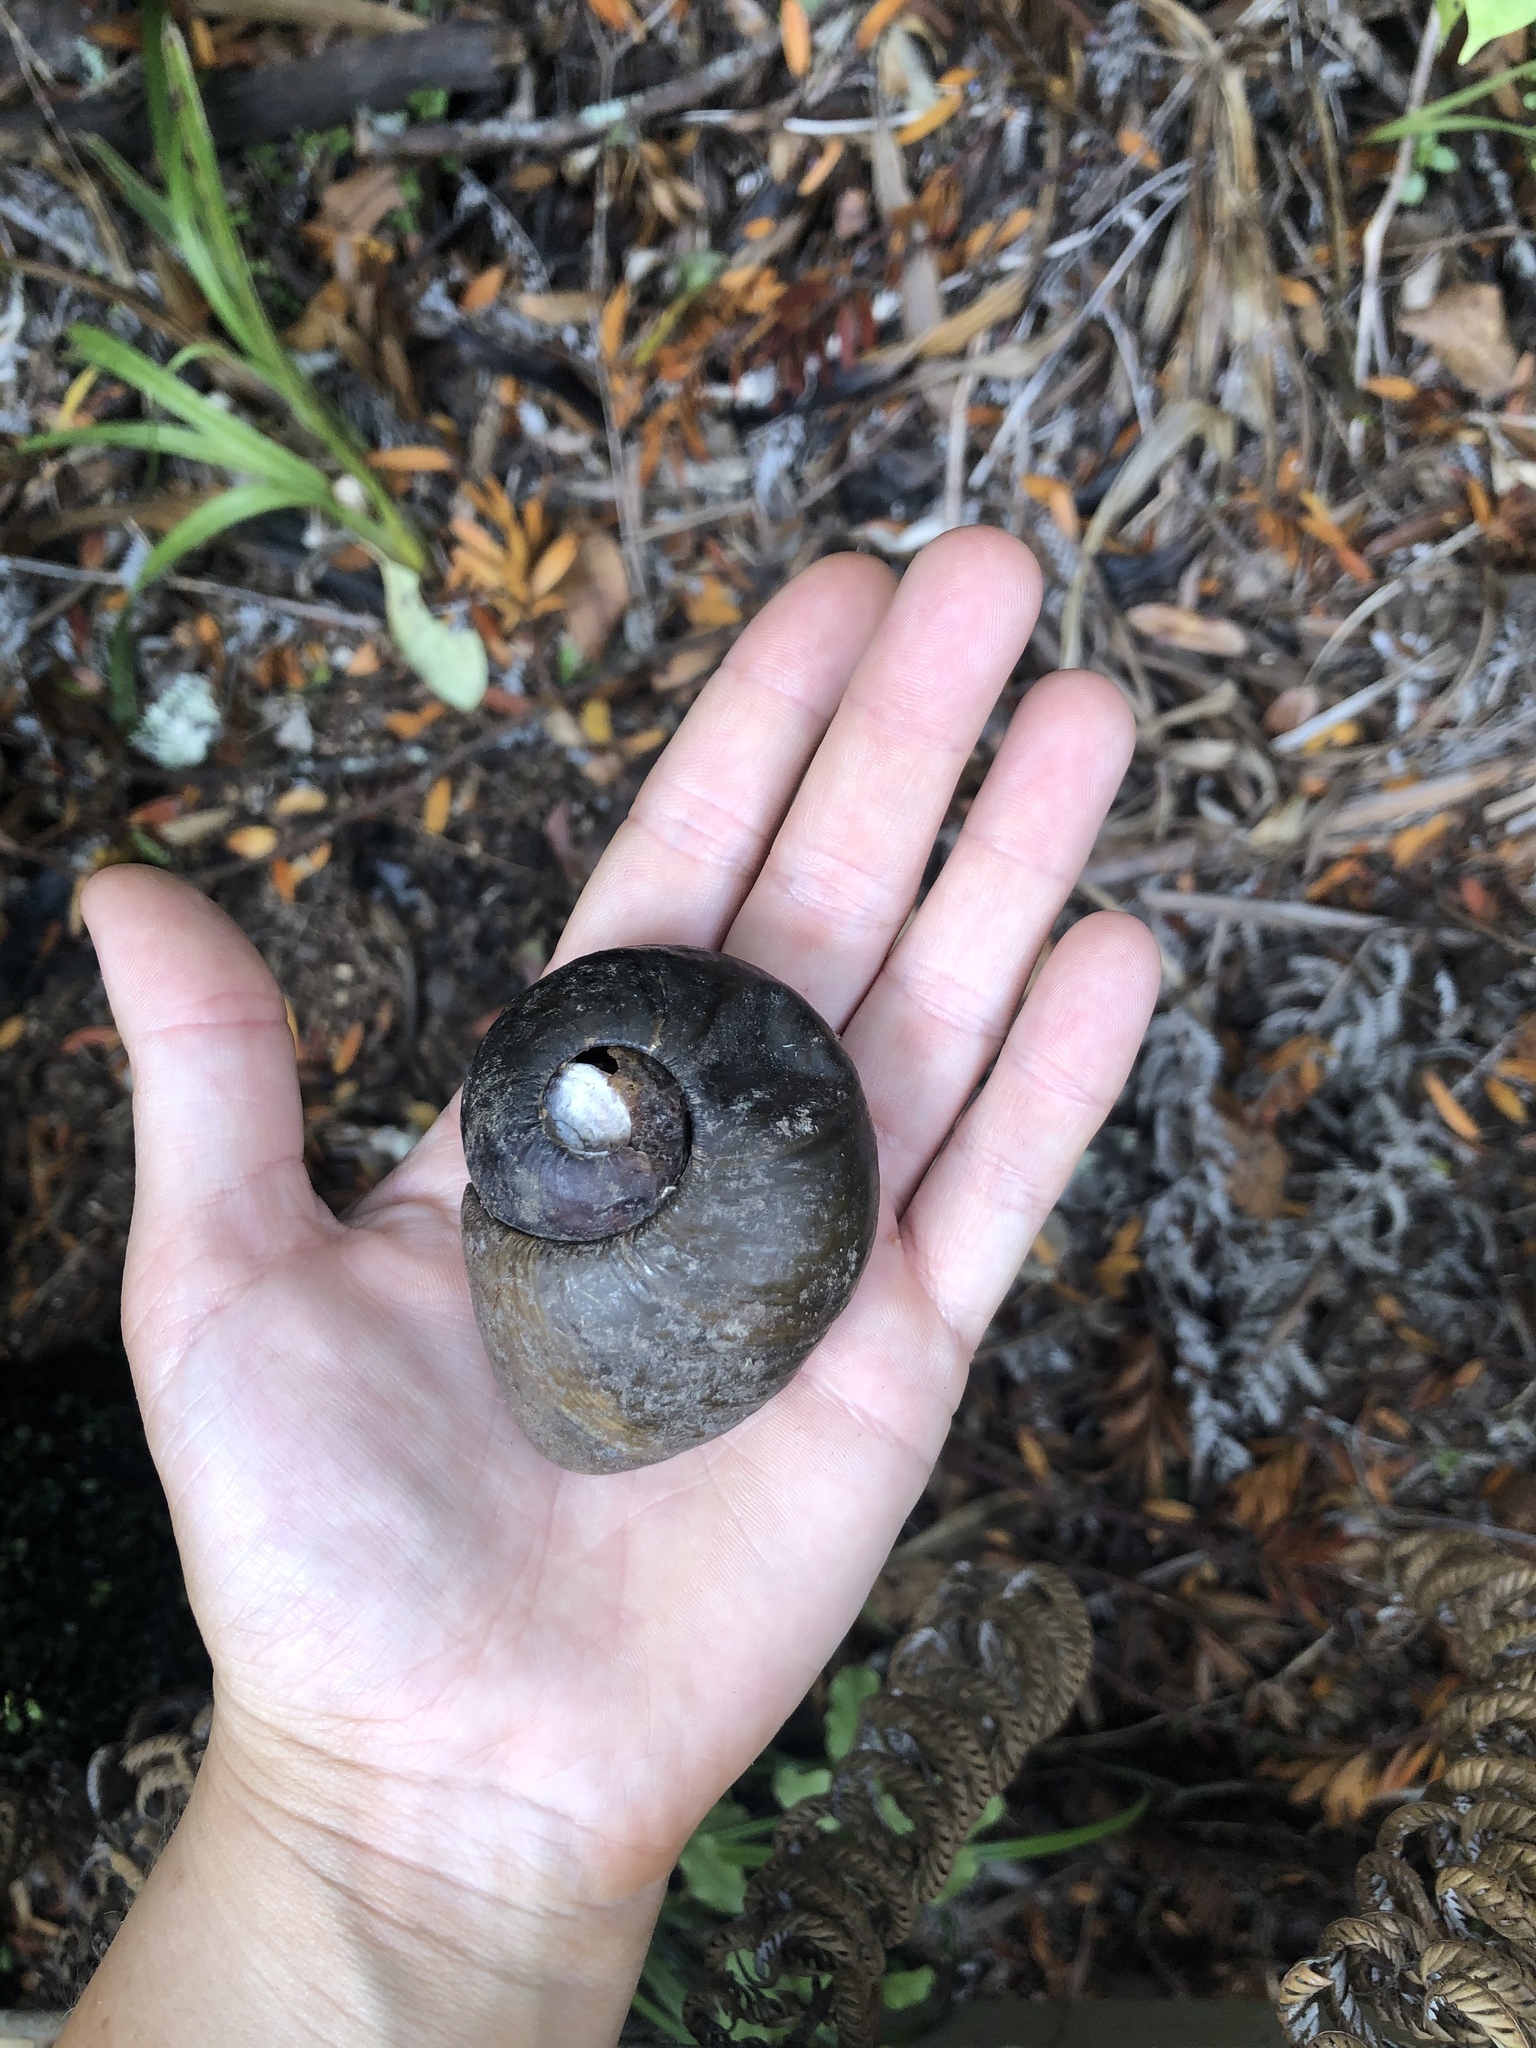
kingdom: Animalia
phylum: Mollusca
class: Gastropoda
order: Stylommatophora
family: Rhytididae
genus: Paryphanta
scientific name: Paryphanta busbyi
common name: Kauri snail
